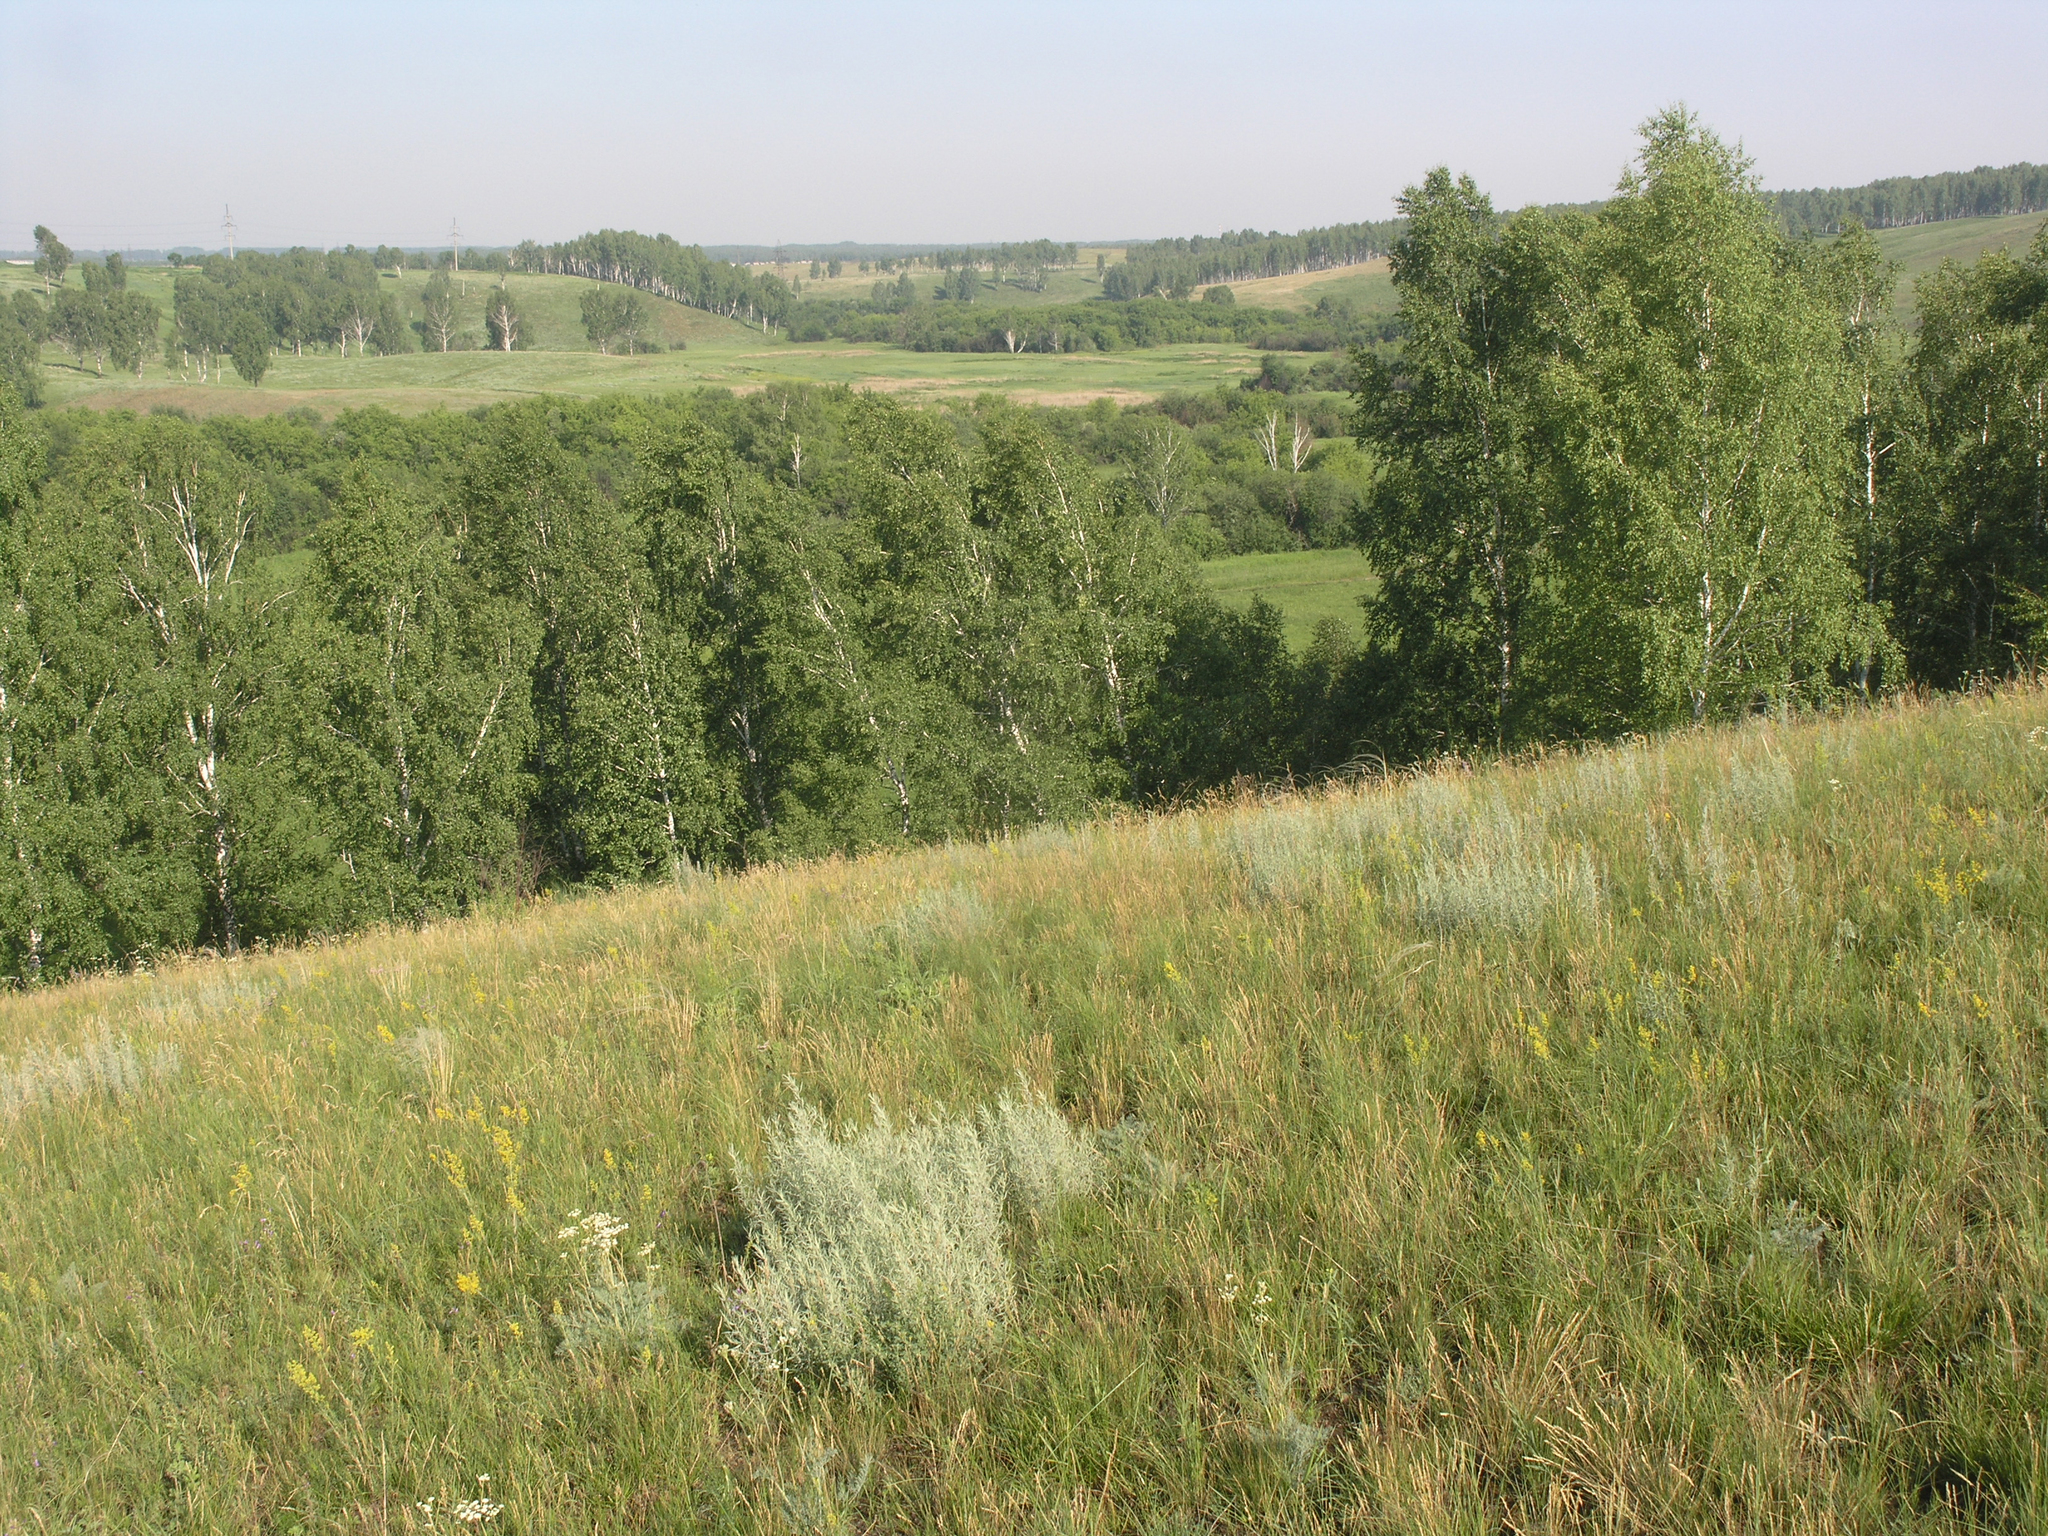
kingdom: Plantae
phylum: Tracheophyta
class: Magnoliopsida
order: Fagales
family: Betulaceae
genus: Betula
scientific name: Betula pendula
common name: Silver birch
